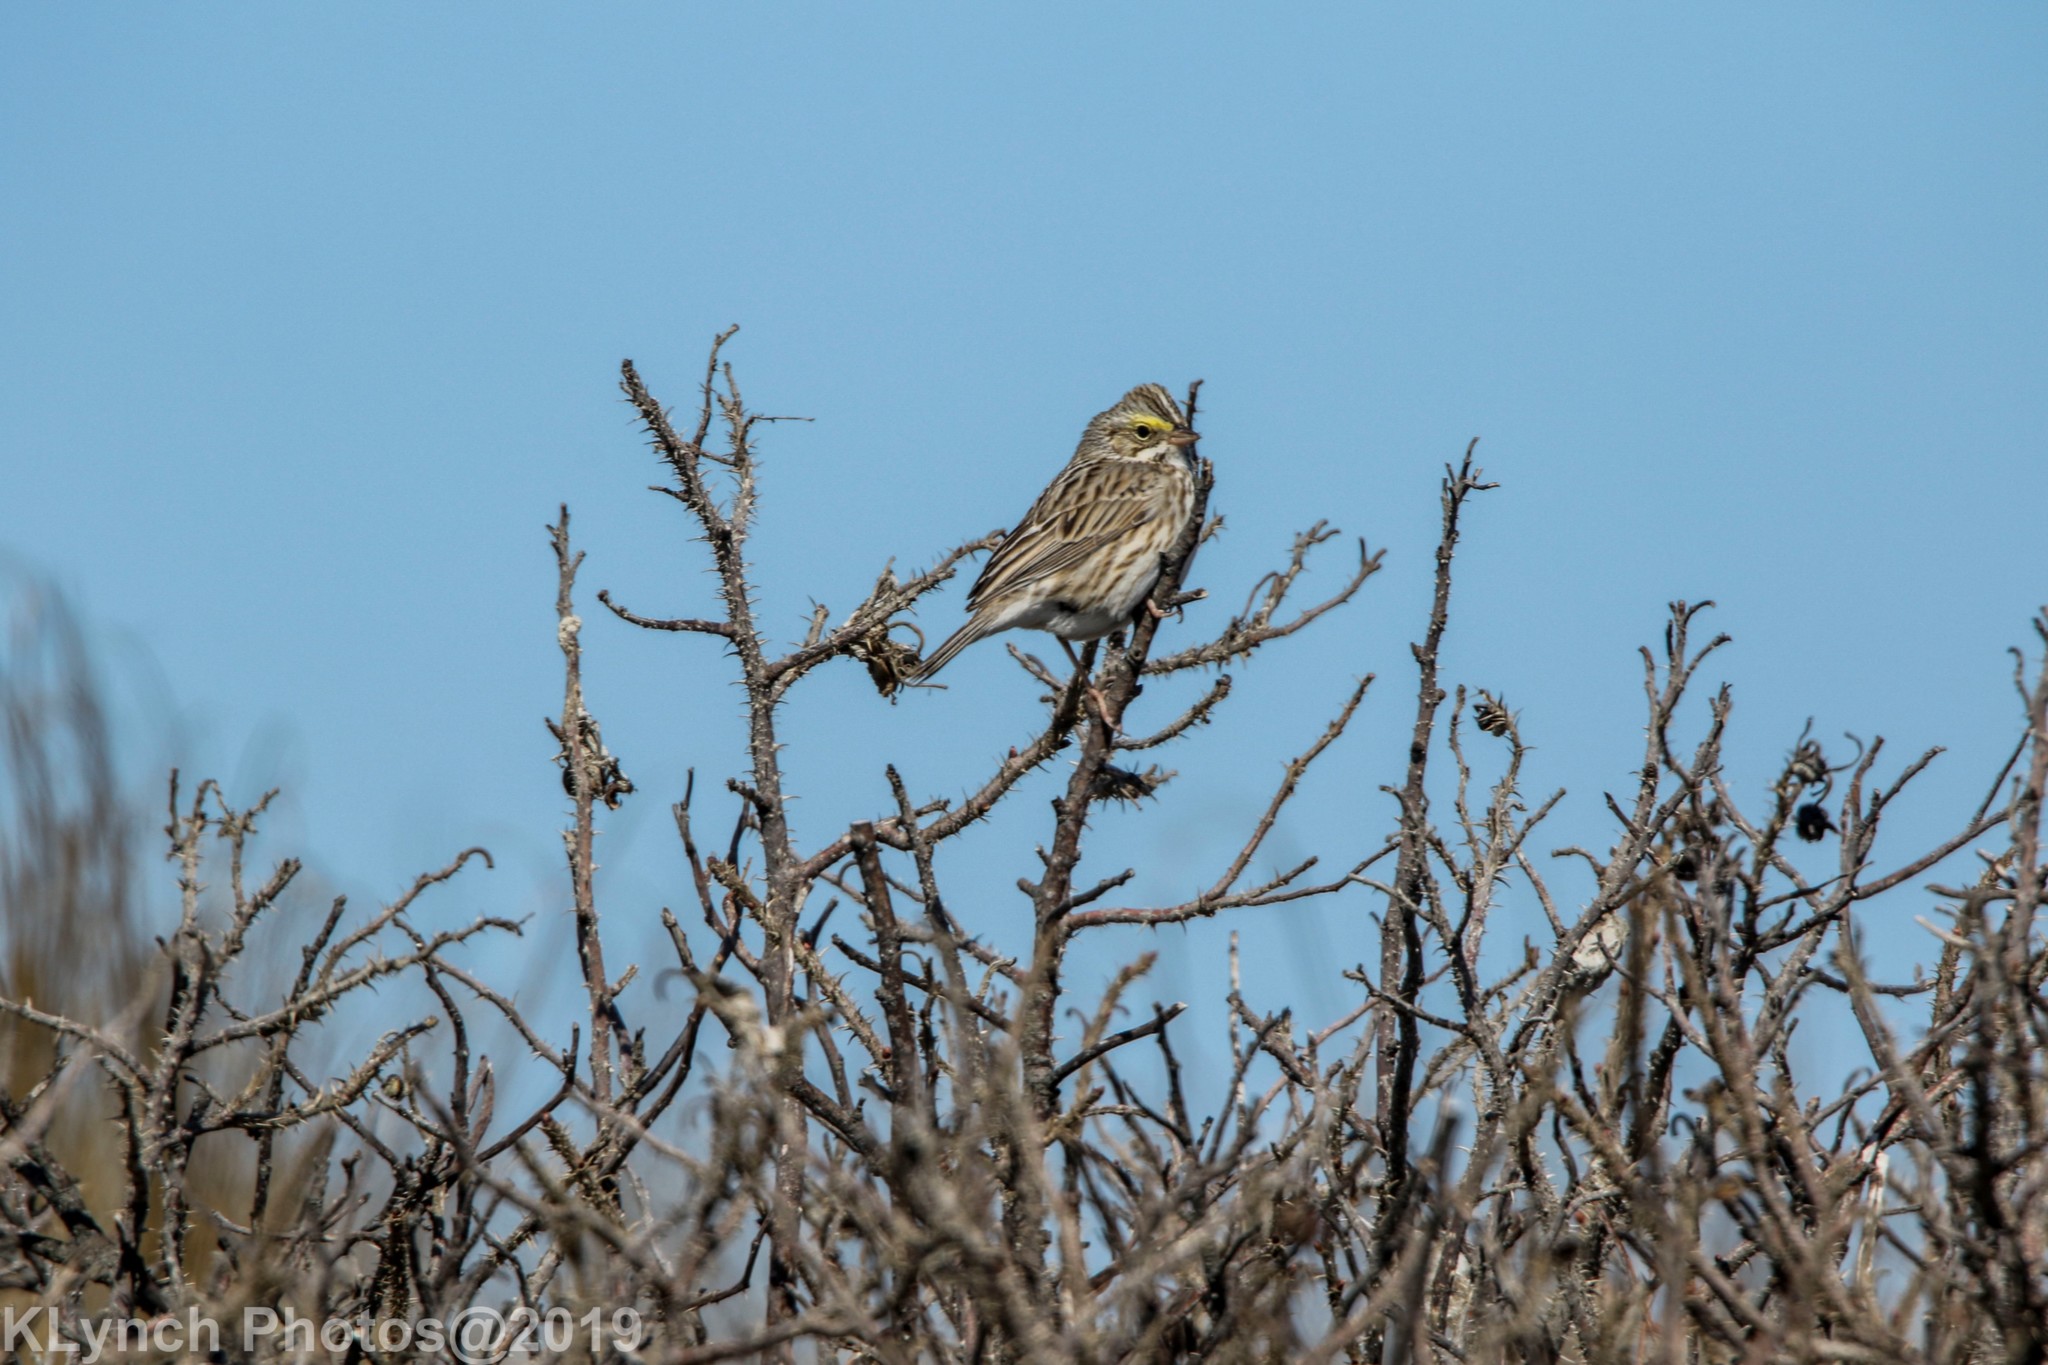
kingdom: Animalia
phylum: Chordata
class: Aves
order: Passeriformes
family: Passerellidae
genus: Passerculus
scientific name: Passerculus sandwichensis
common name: Savannah sparrow
